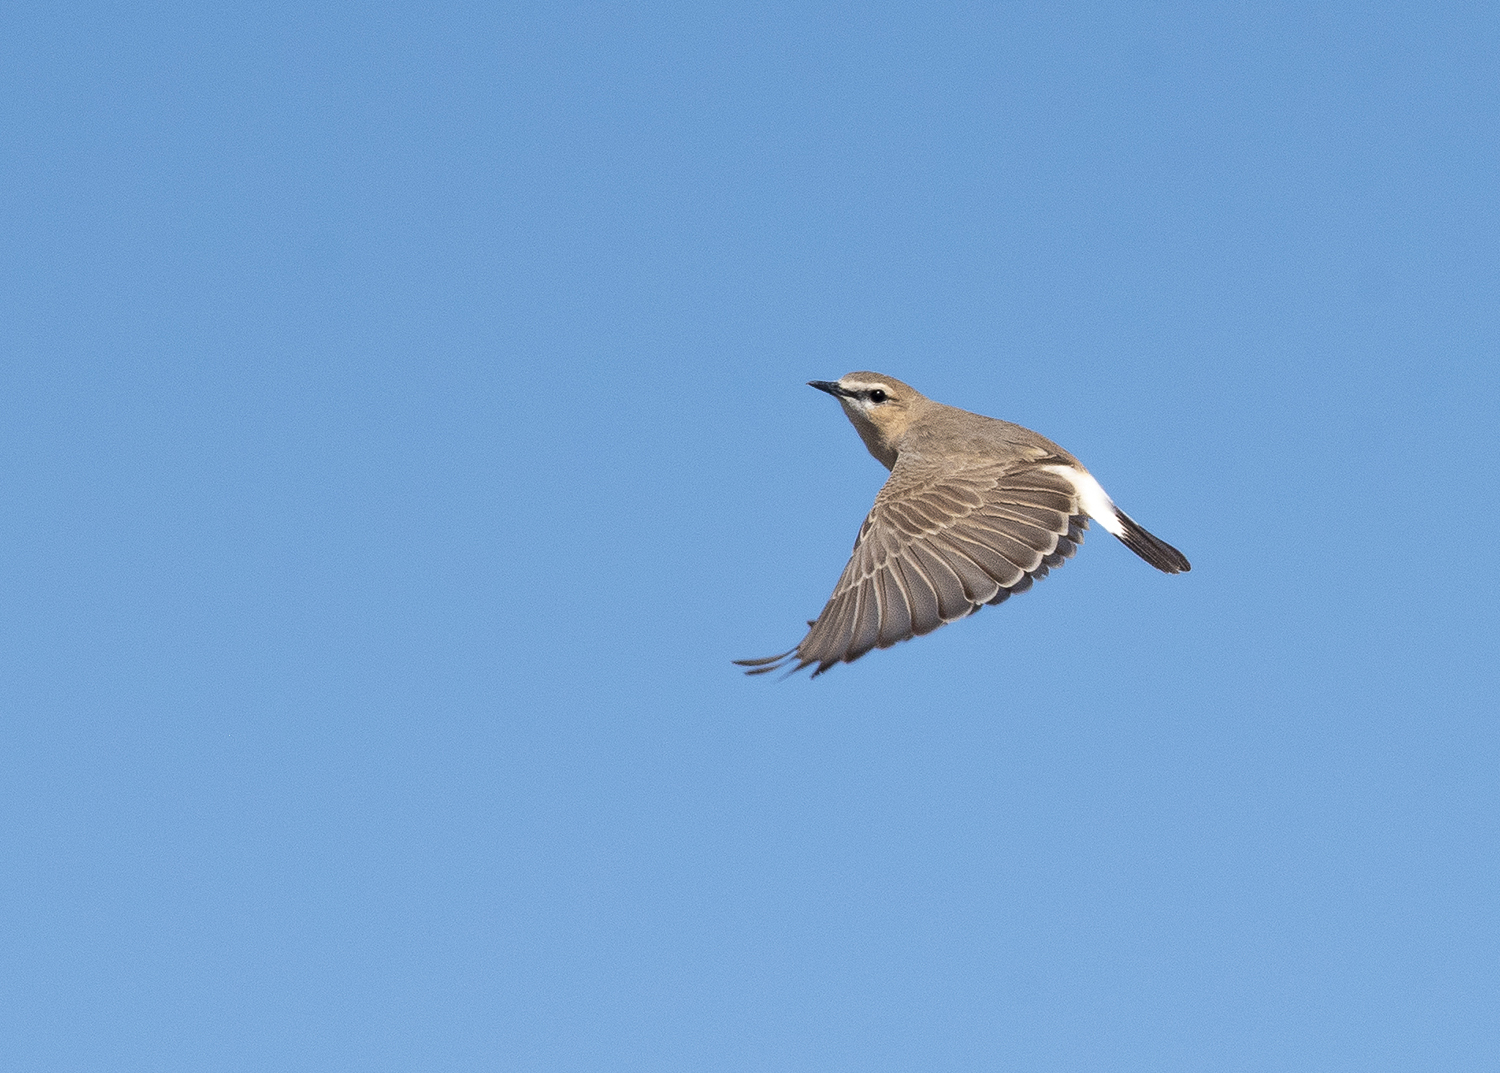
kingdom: Animalia
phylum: Chordata
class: Aves
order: Passeriformes
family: Muscicapidae
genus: Oenanthe
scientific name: Oenanthe isabellina
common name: Isabelline wheatear
